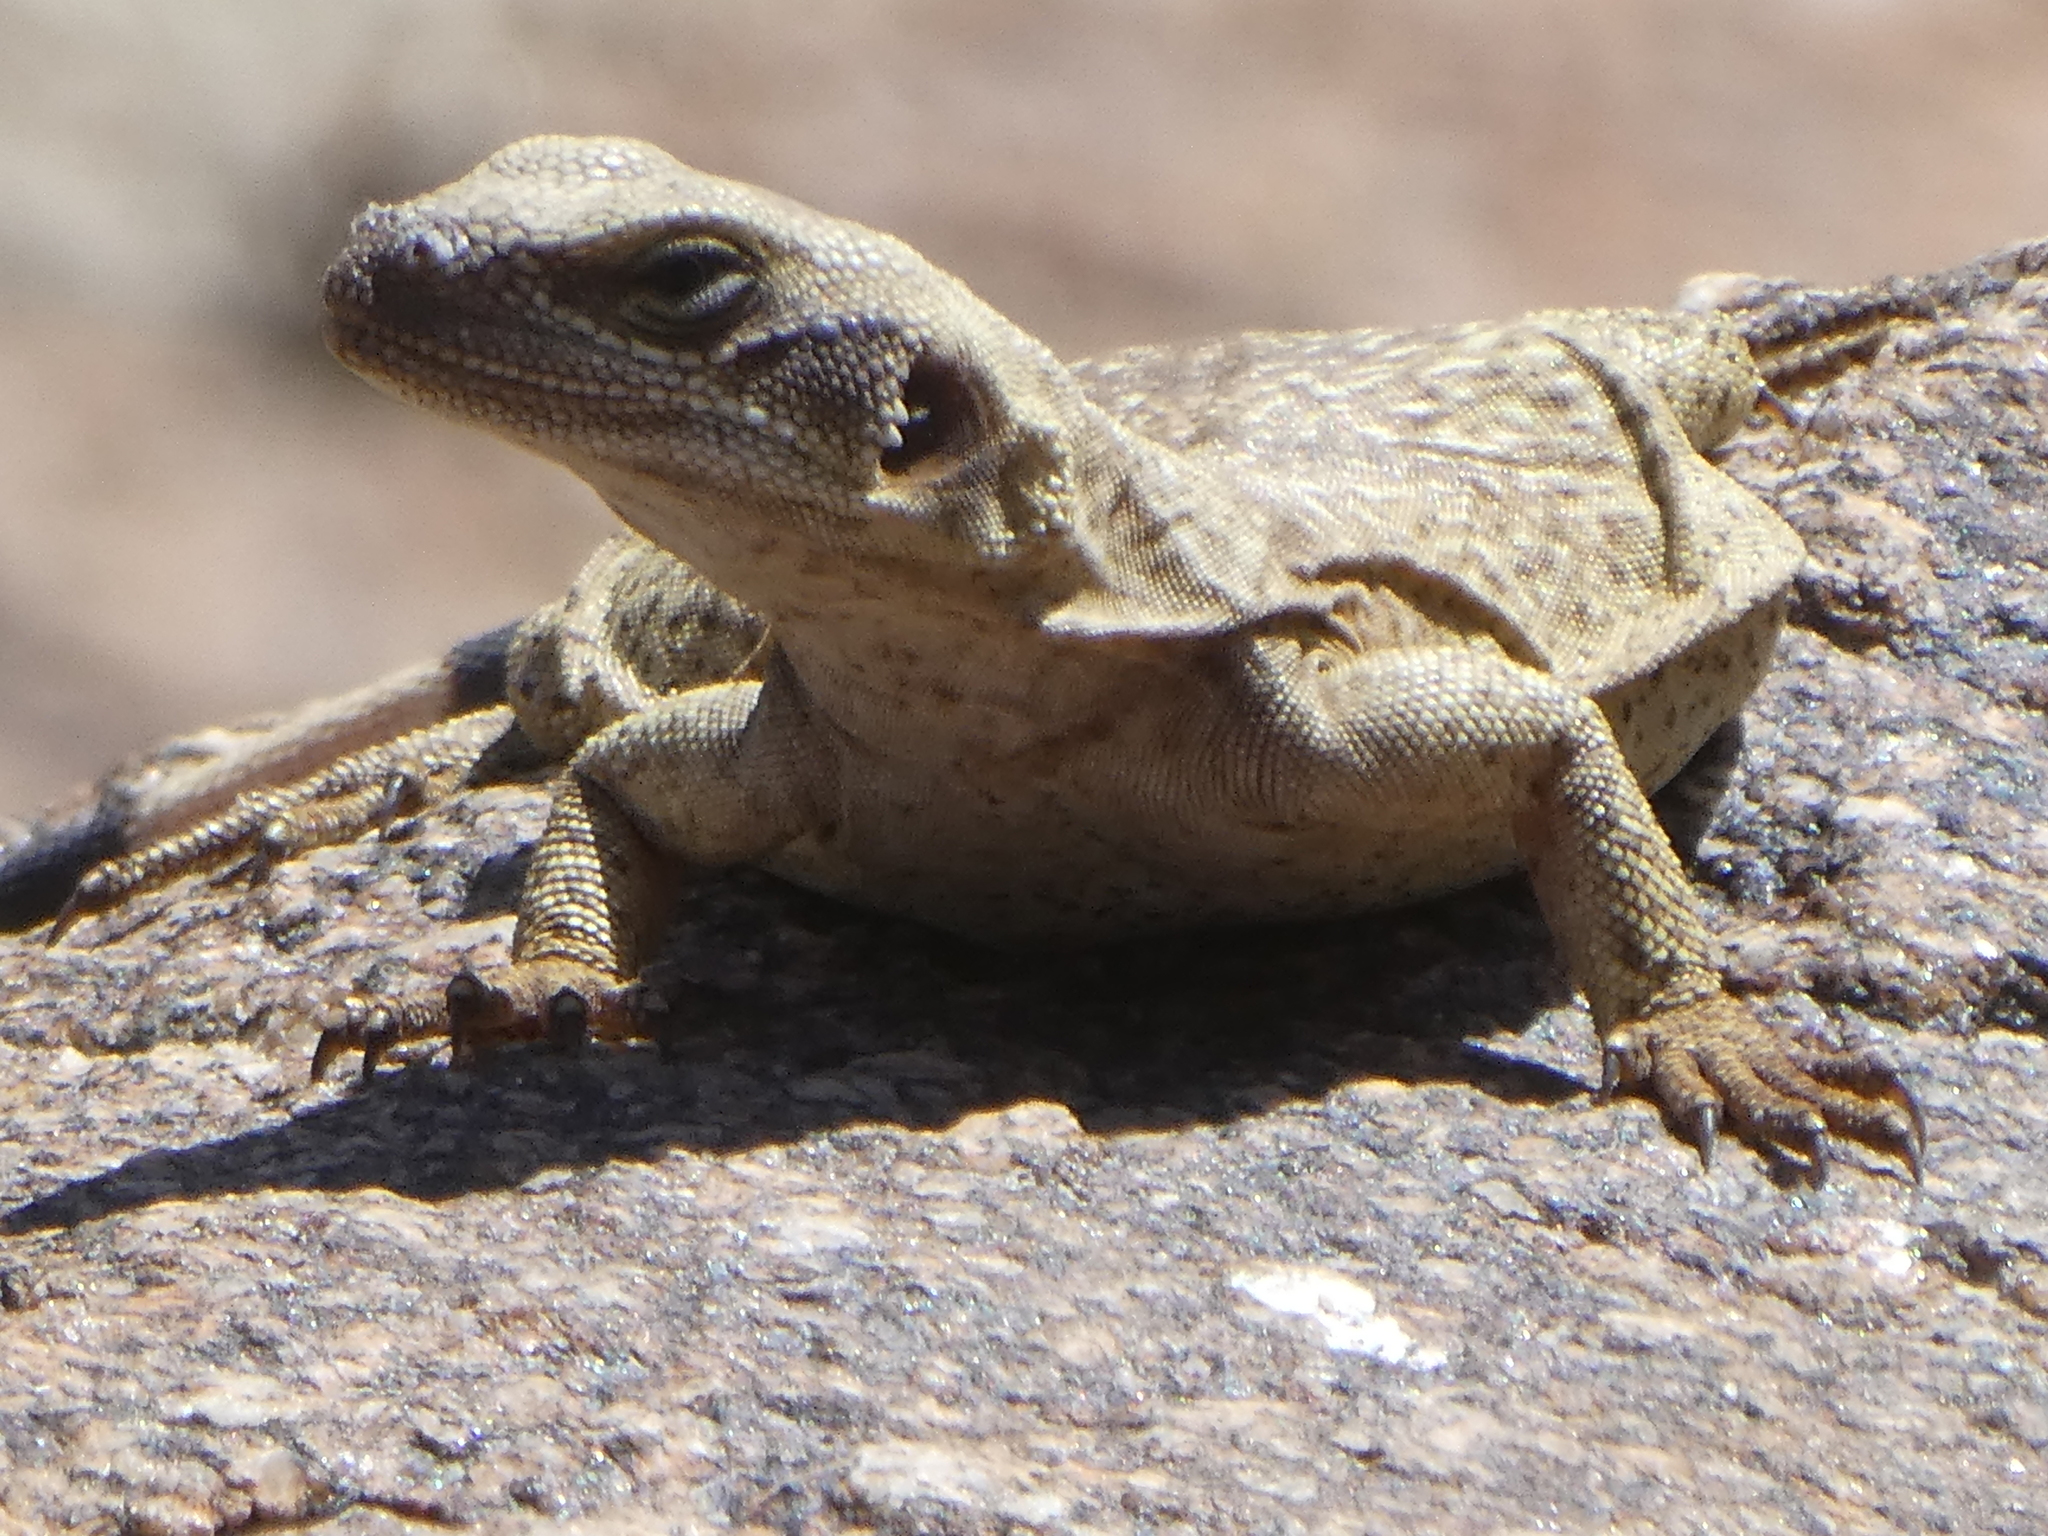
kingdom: Animalia
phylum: Chordata
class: Squamata
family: Iguanidae
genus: Sauromalus
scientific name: Sauromalus ater
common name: Northern chuckwalla
